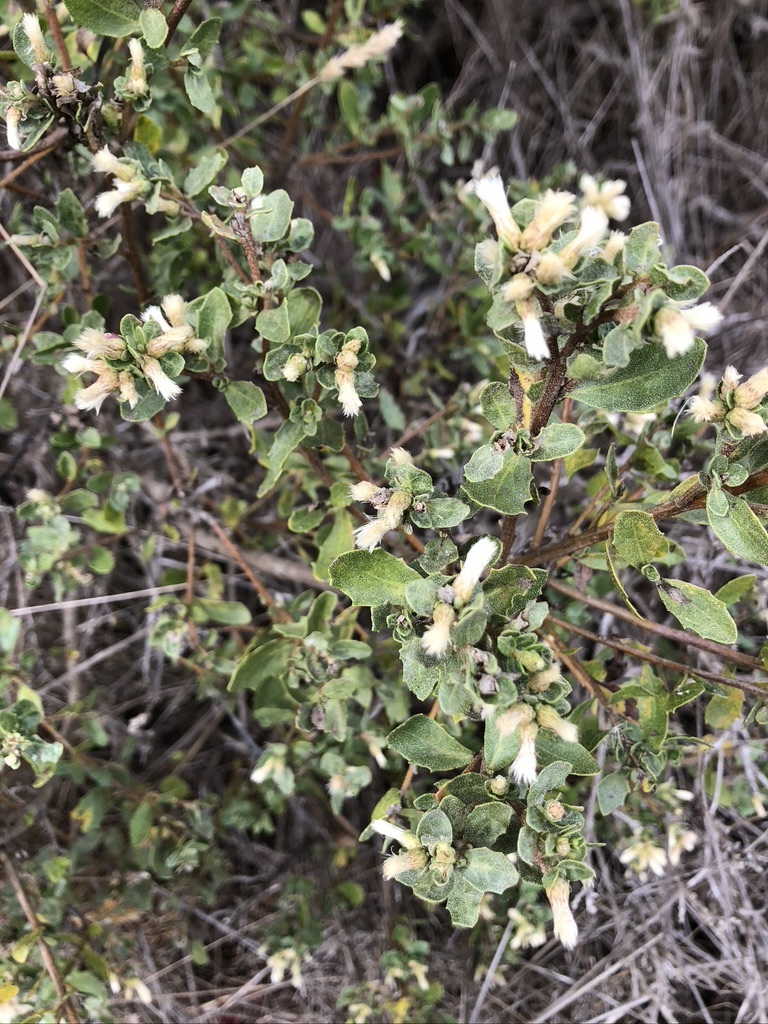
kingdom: Plantae
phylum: Tracheophyta
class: Magnoliopsida
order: Asterales
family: Asteraceae
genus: Baccharis
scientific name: Baccharis pilularis
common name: Coyotebrush
